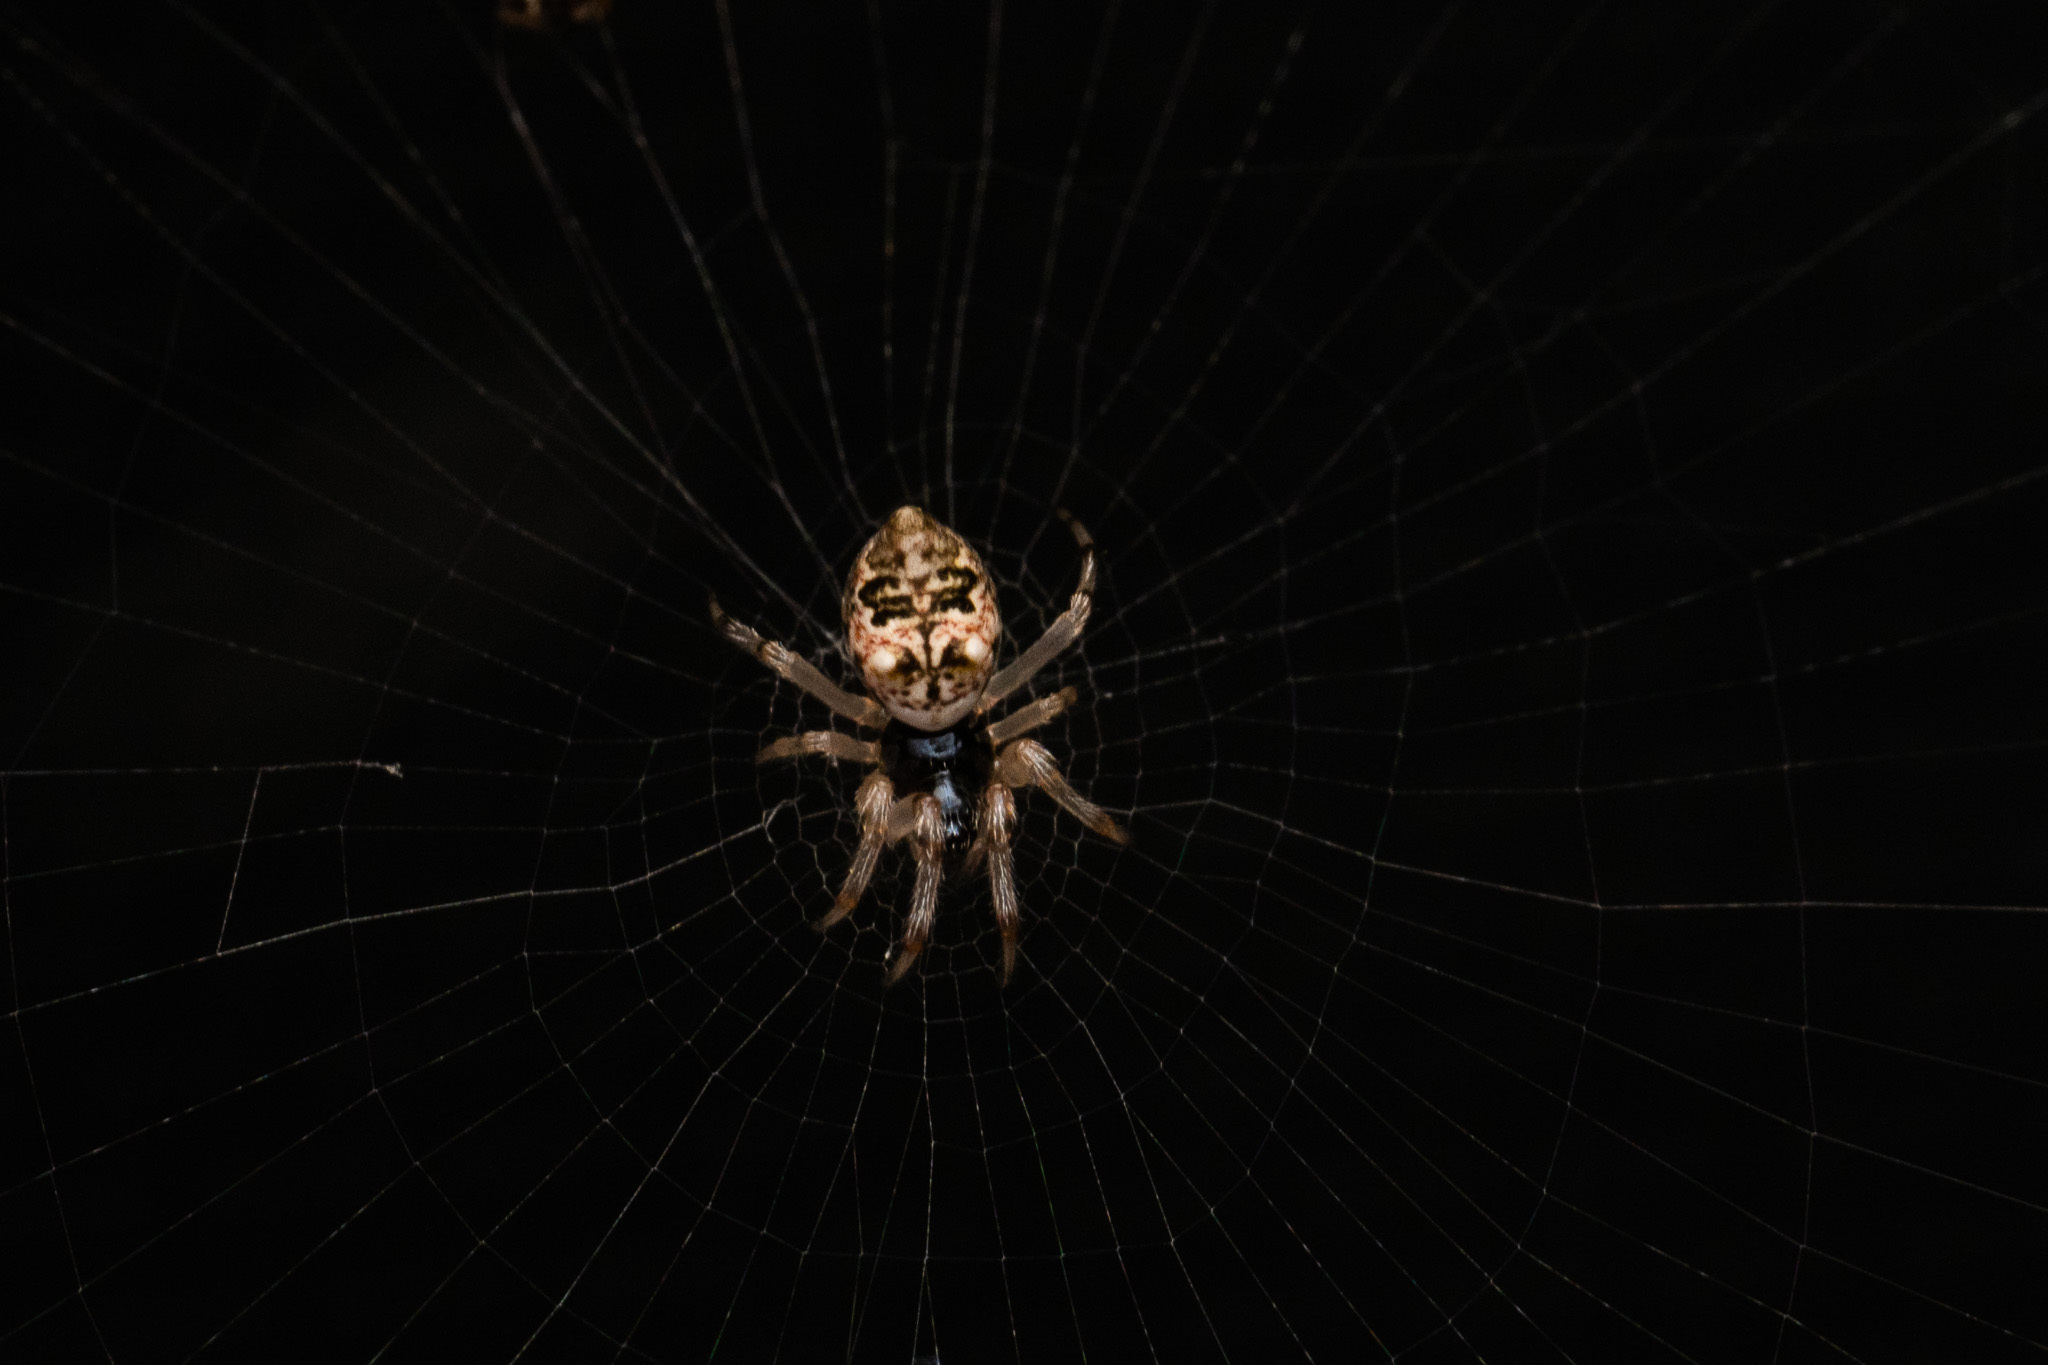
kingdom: Animalia
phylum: Arthropoda
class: Arachnida
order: Araneae
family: Araneidae
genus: Cyclosa
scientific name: Cyclosa turbinata
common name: Orb weavers
